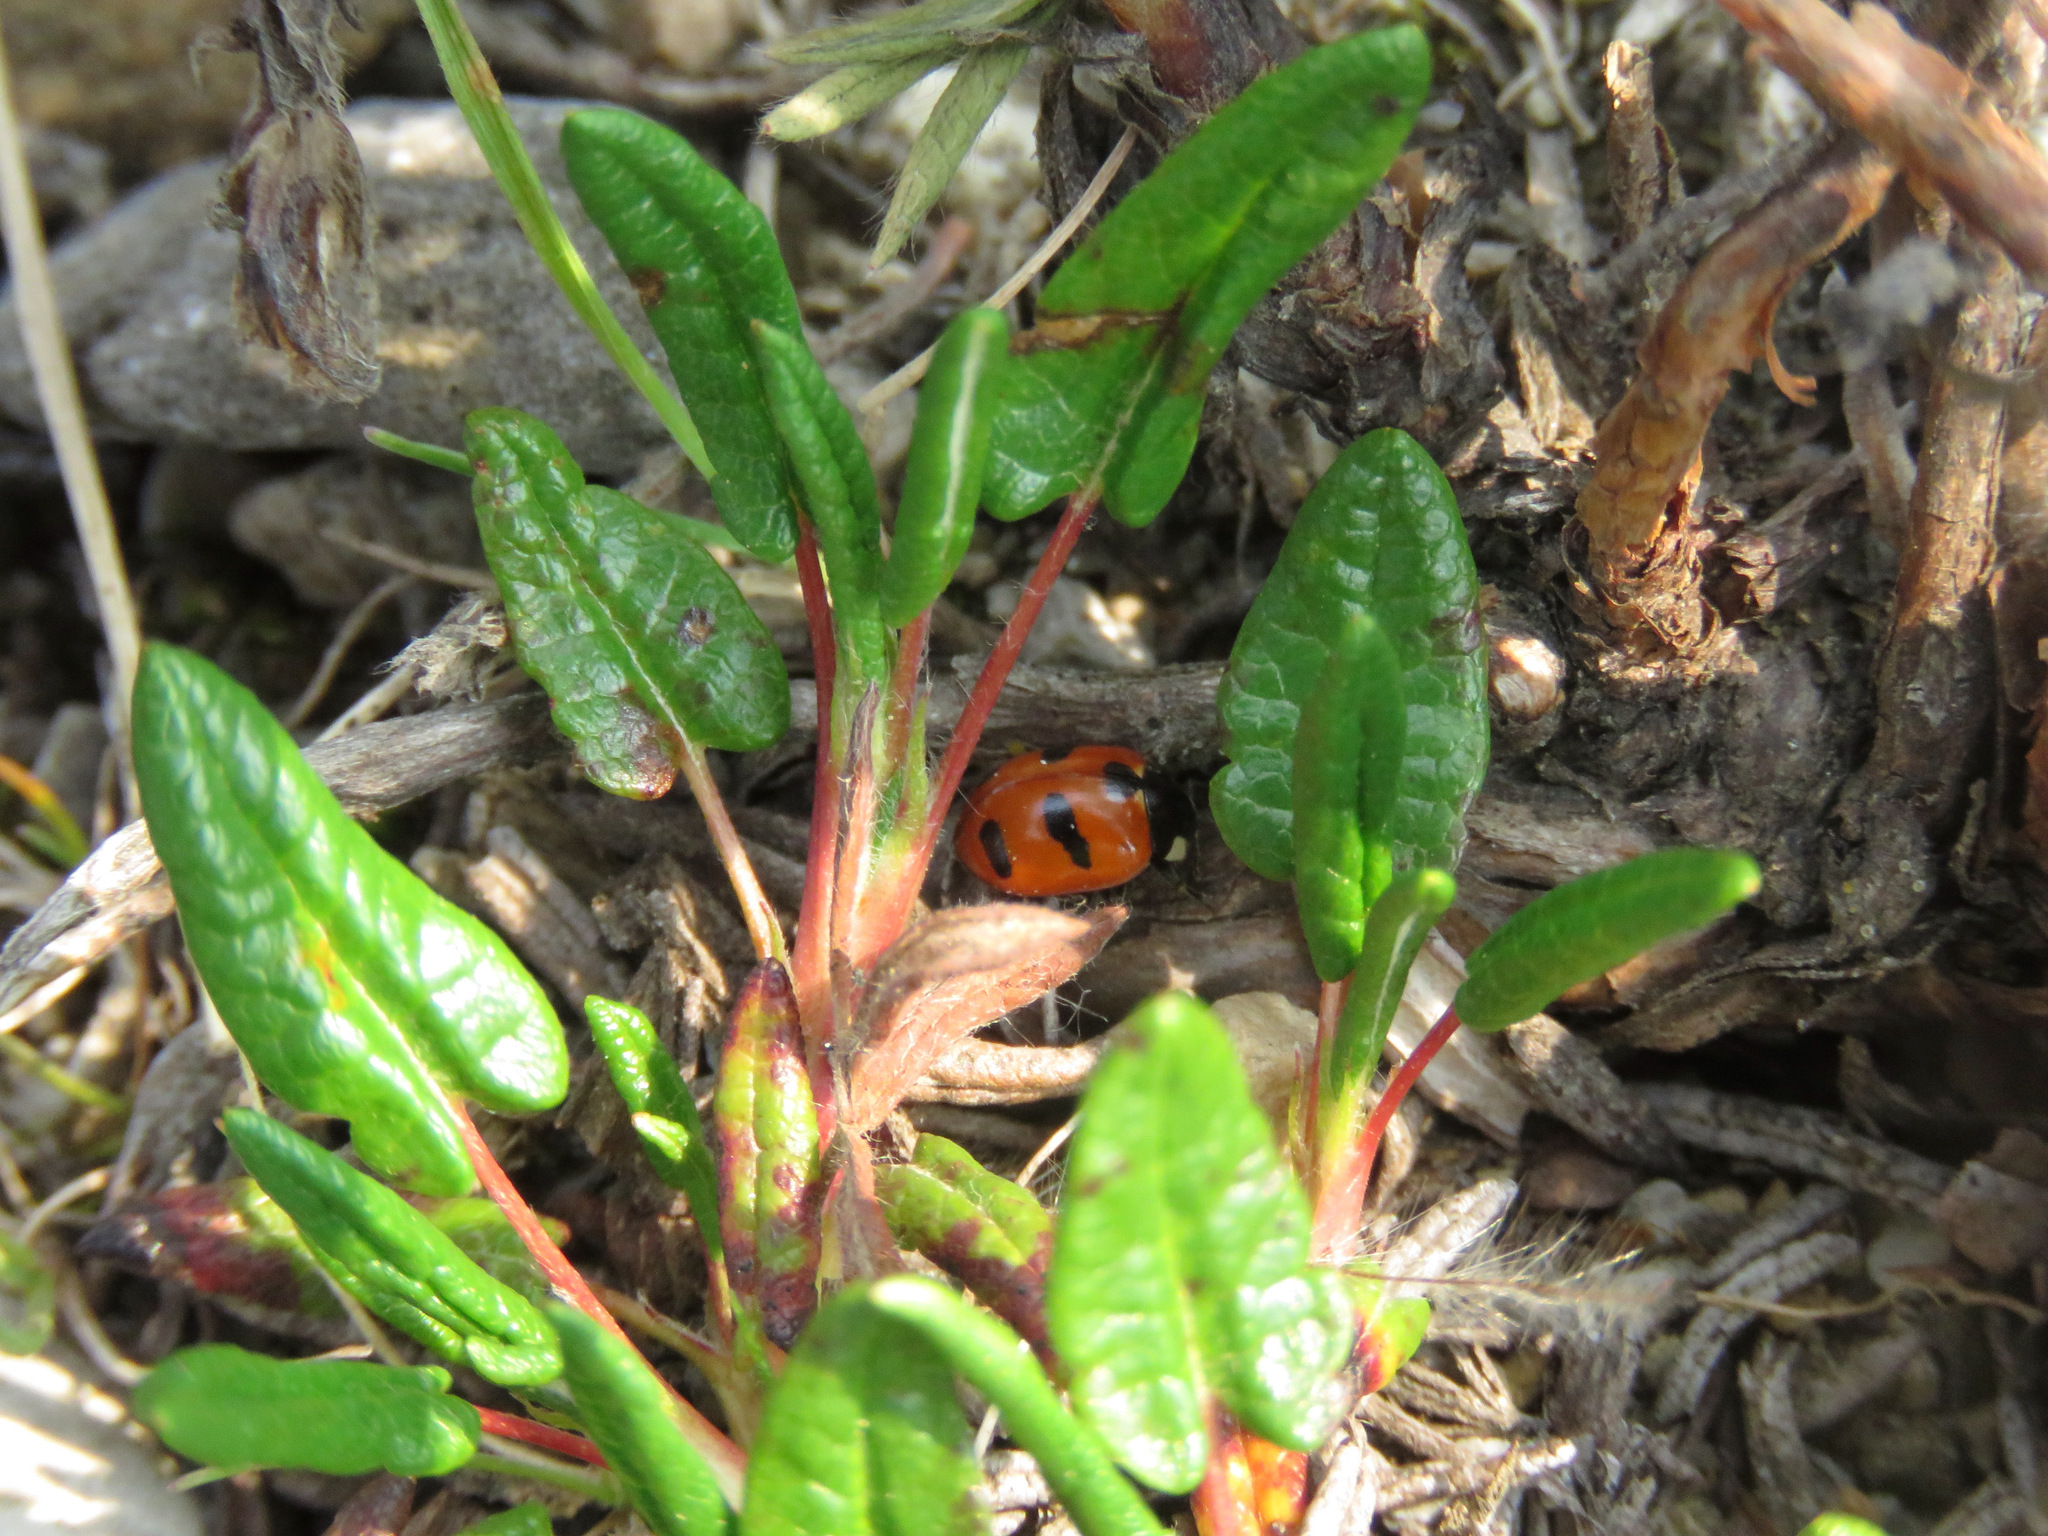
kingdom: Animalia
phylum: Arthropoda
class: Insecta
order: Coleoptera
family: Coccinellidae
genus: Coccinella
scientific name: Coccinella monticola
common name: Mountain lady beetle
